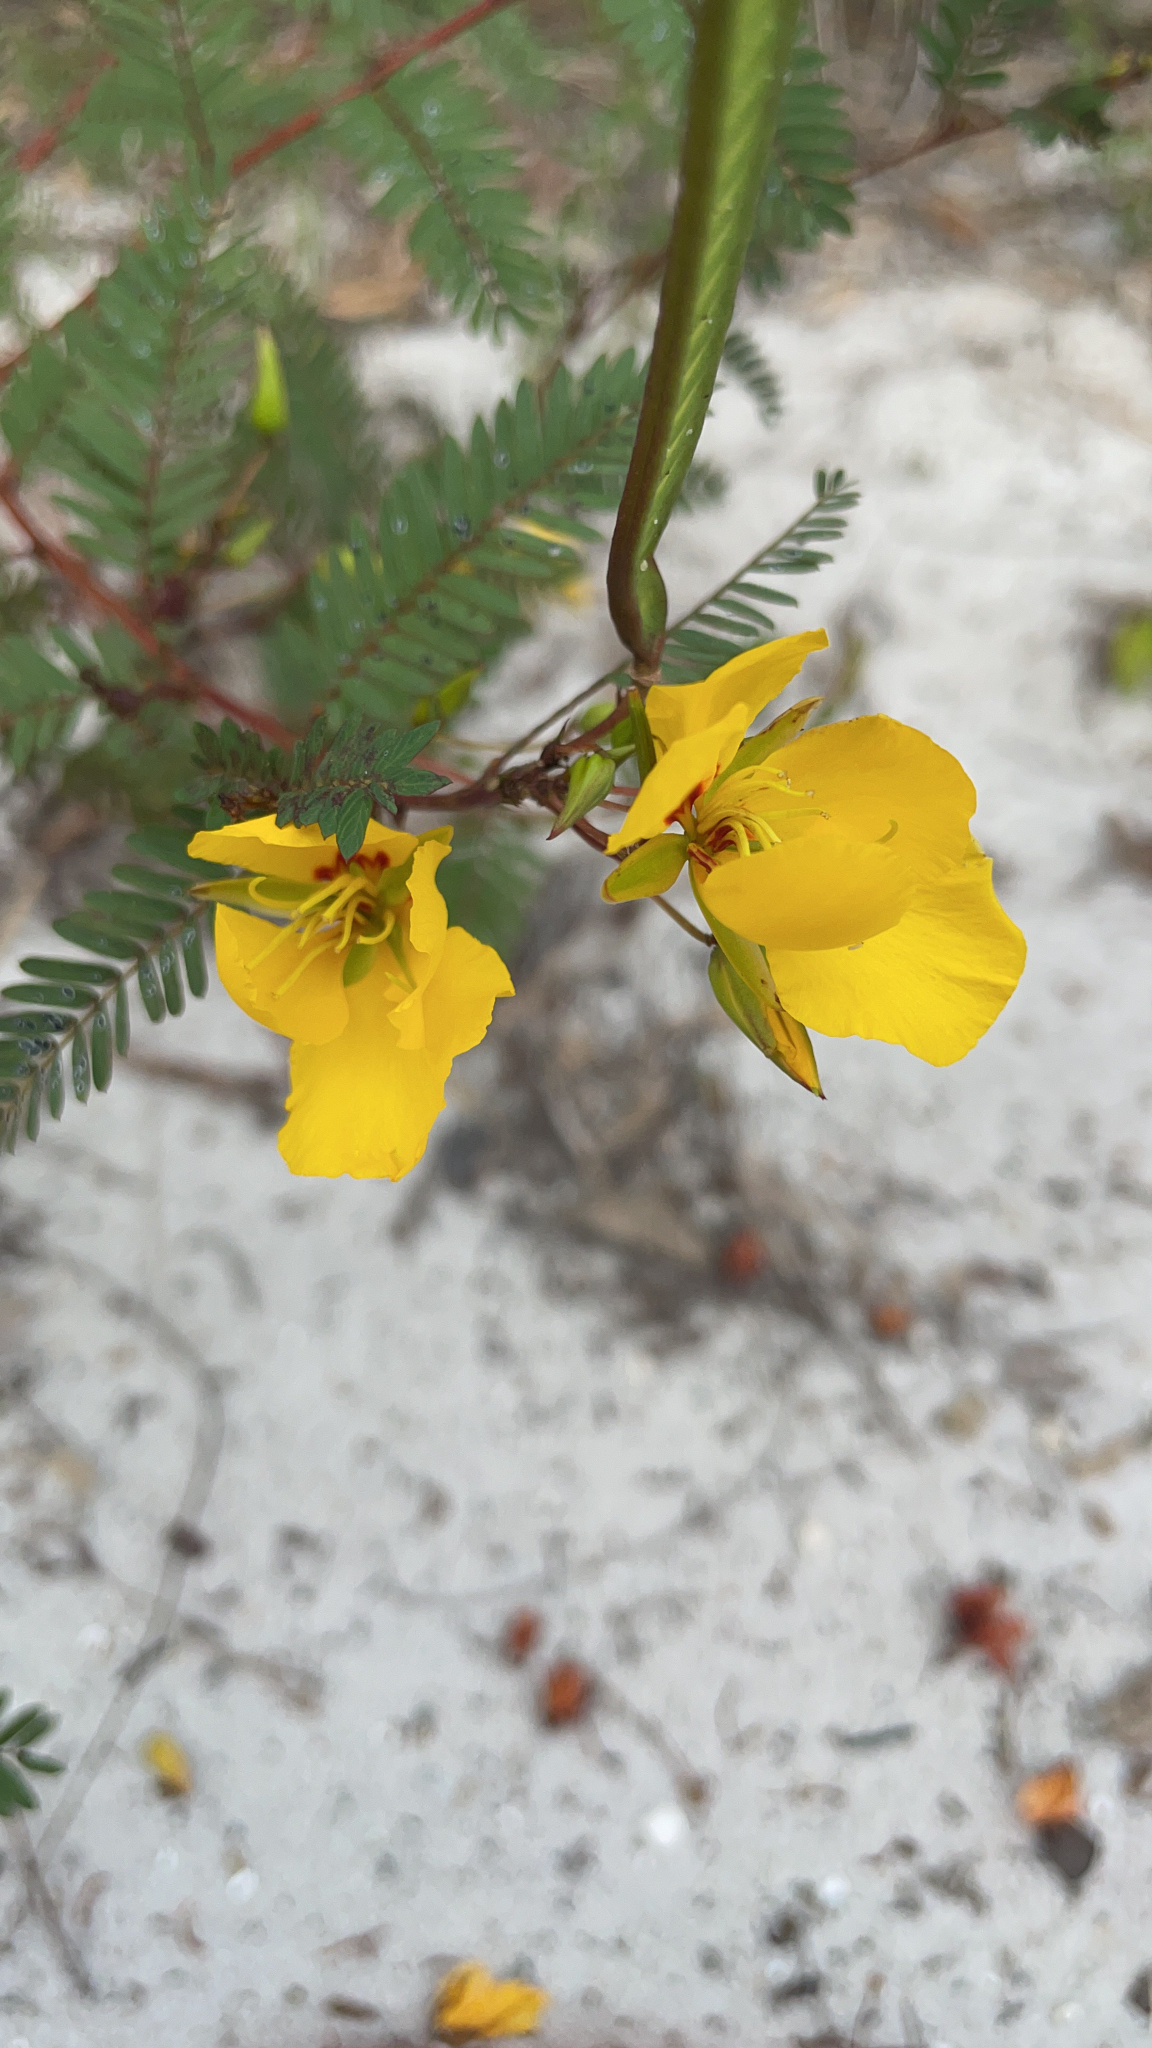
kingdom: Plantae
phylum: Tracheophyta
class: Magnoliopsida
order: Fabales
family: Fabaceae
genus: Chamaecrista
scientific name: Chamaecrista fasciculata
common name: Golden cassia
